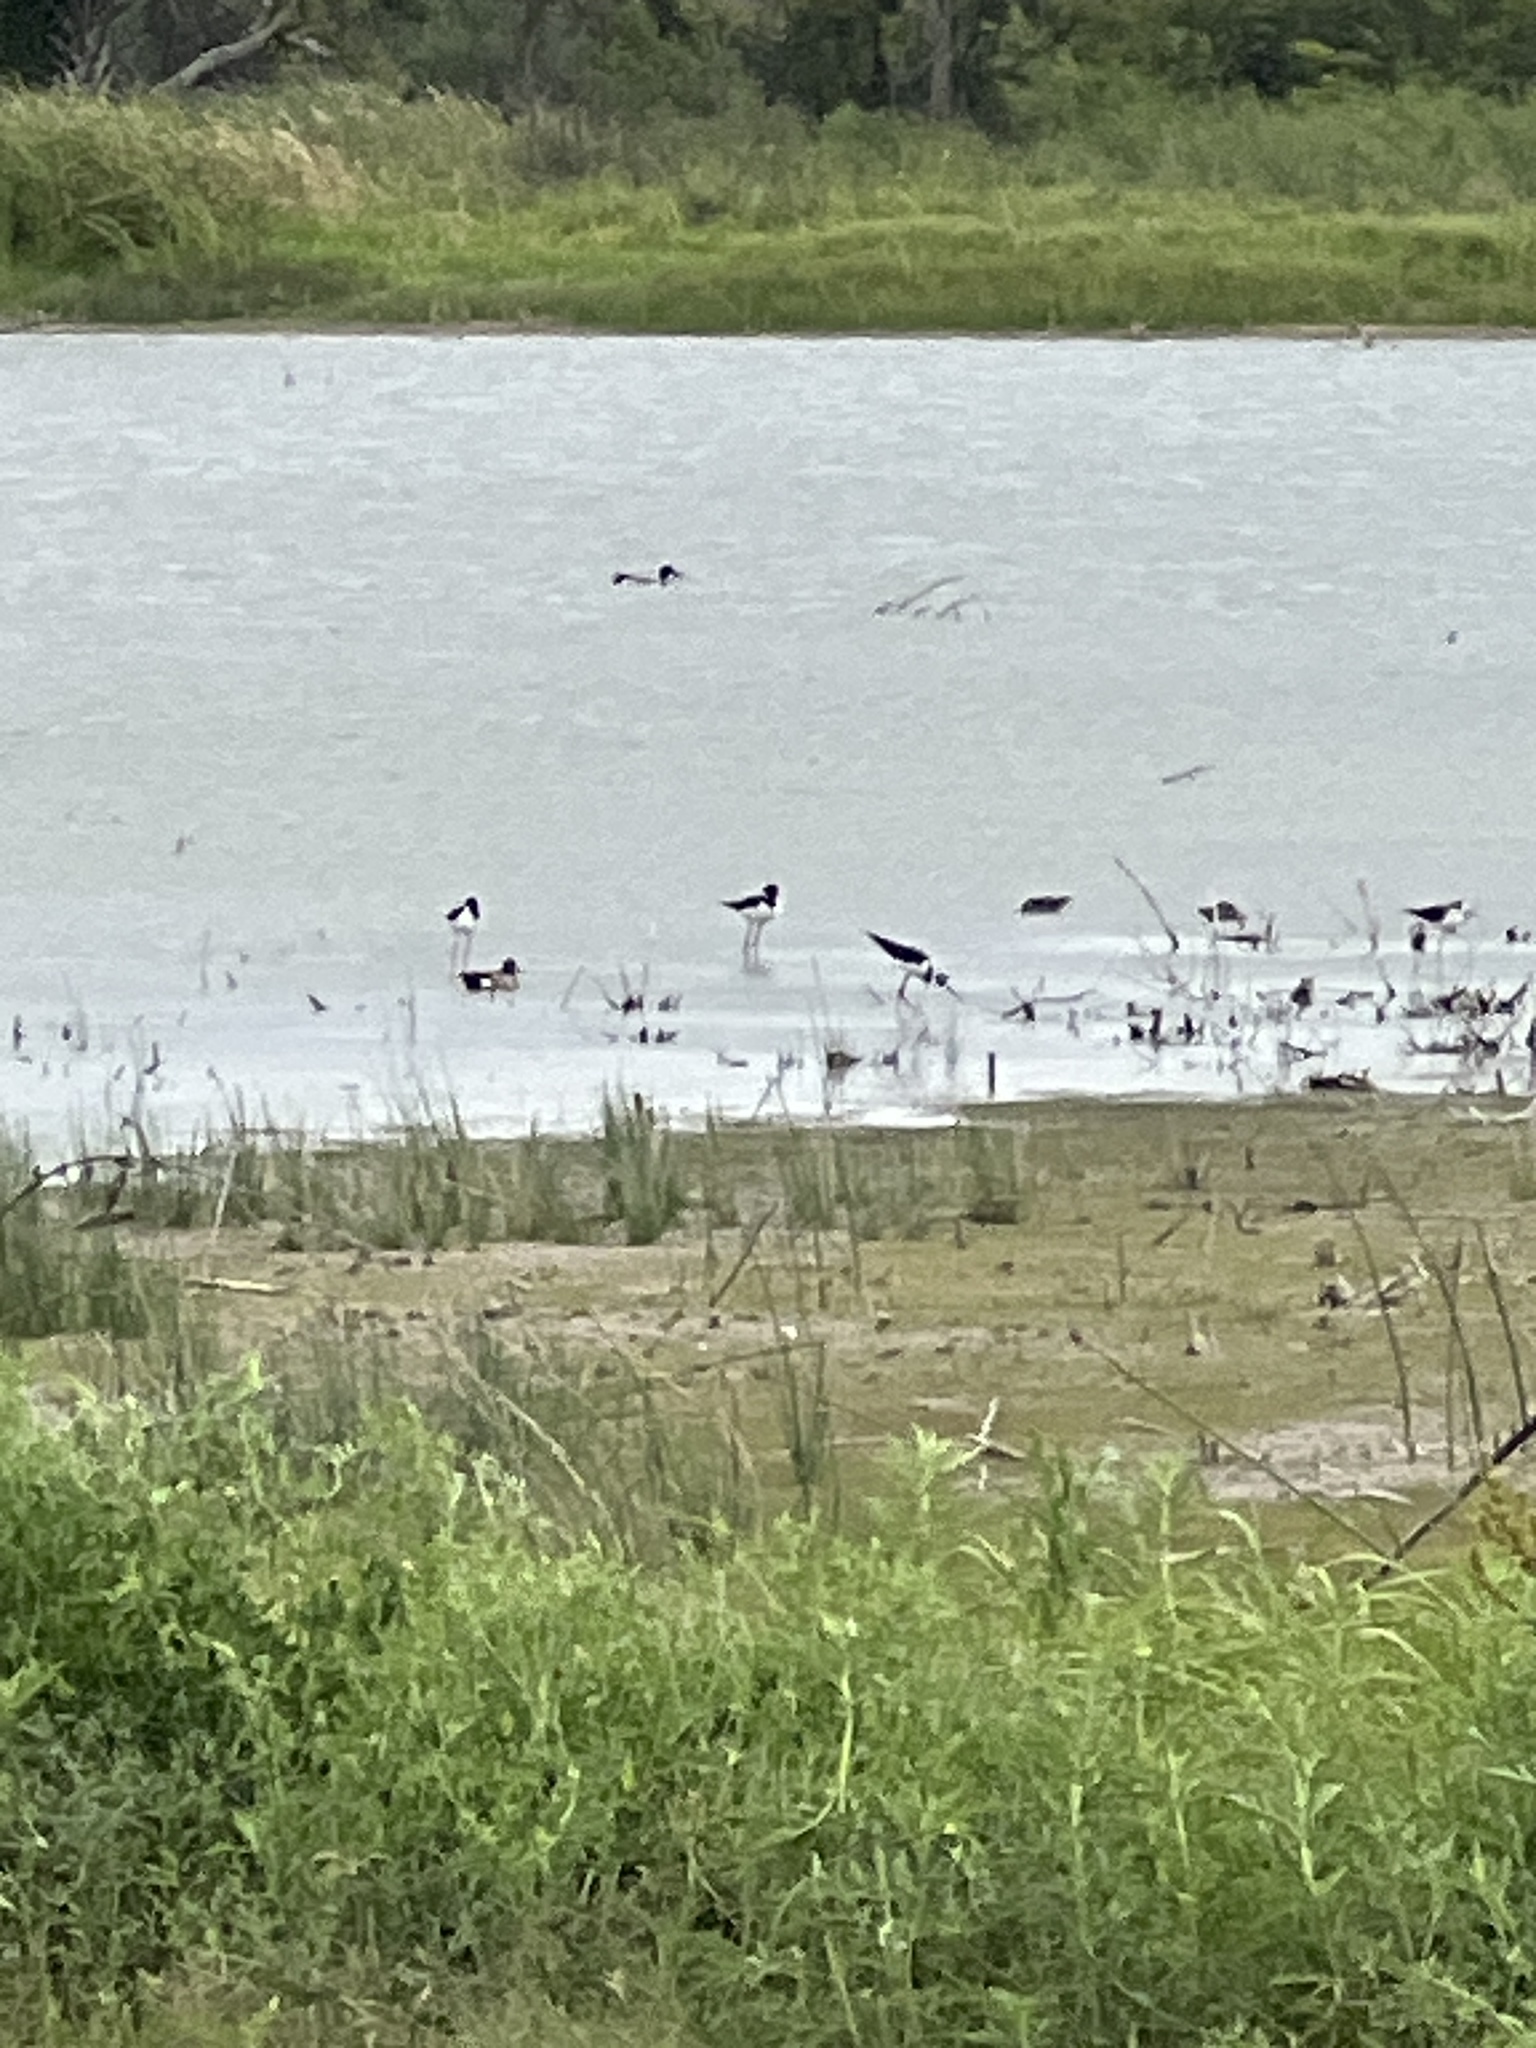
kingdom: Animalia
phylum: Chordata
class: Aves
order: Charadriiformes
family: Recurvirostridae
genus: Himantopus
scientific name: Himantopus mexicanus
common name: Black-necked stilt
